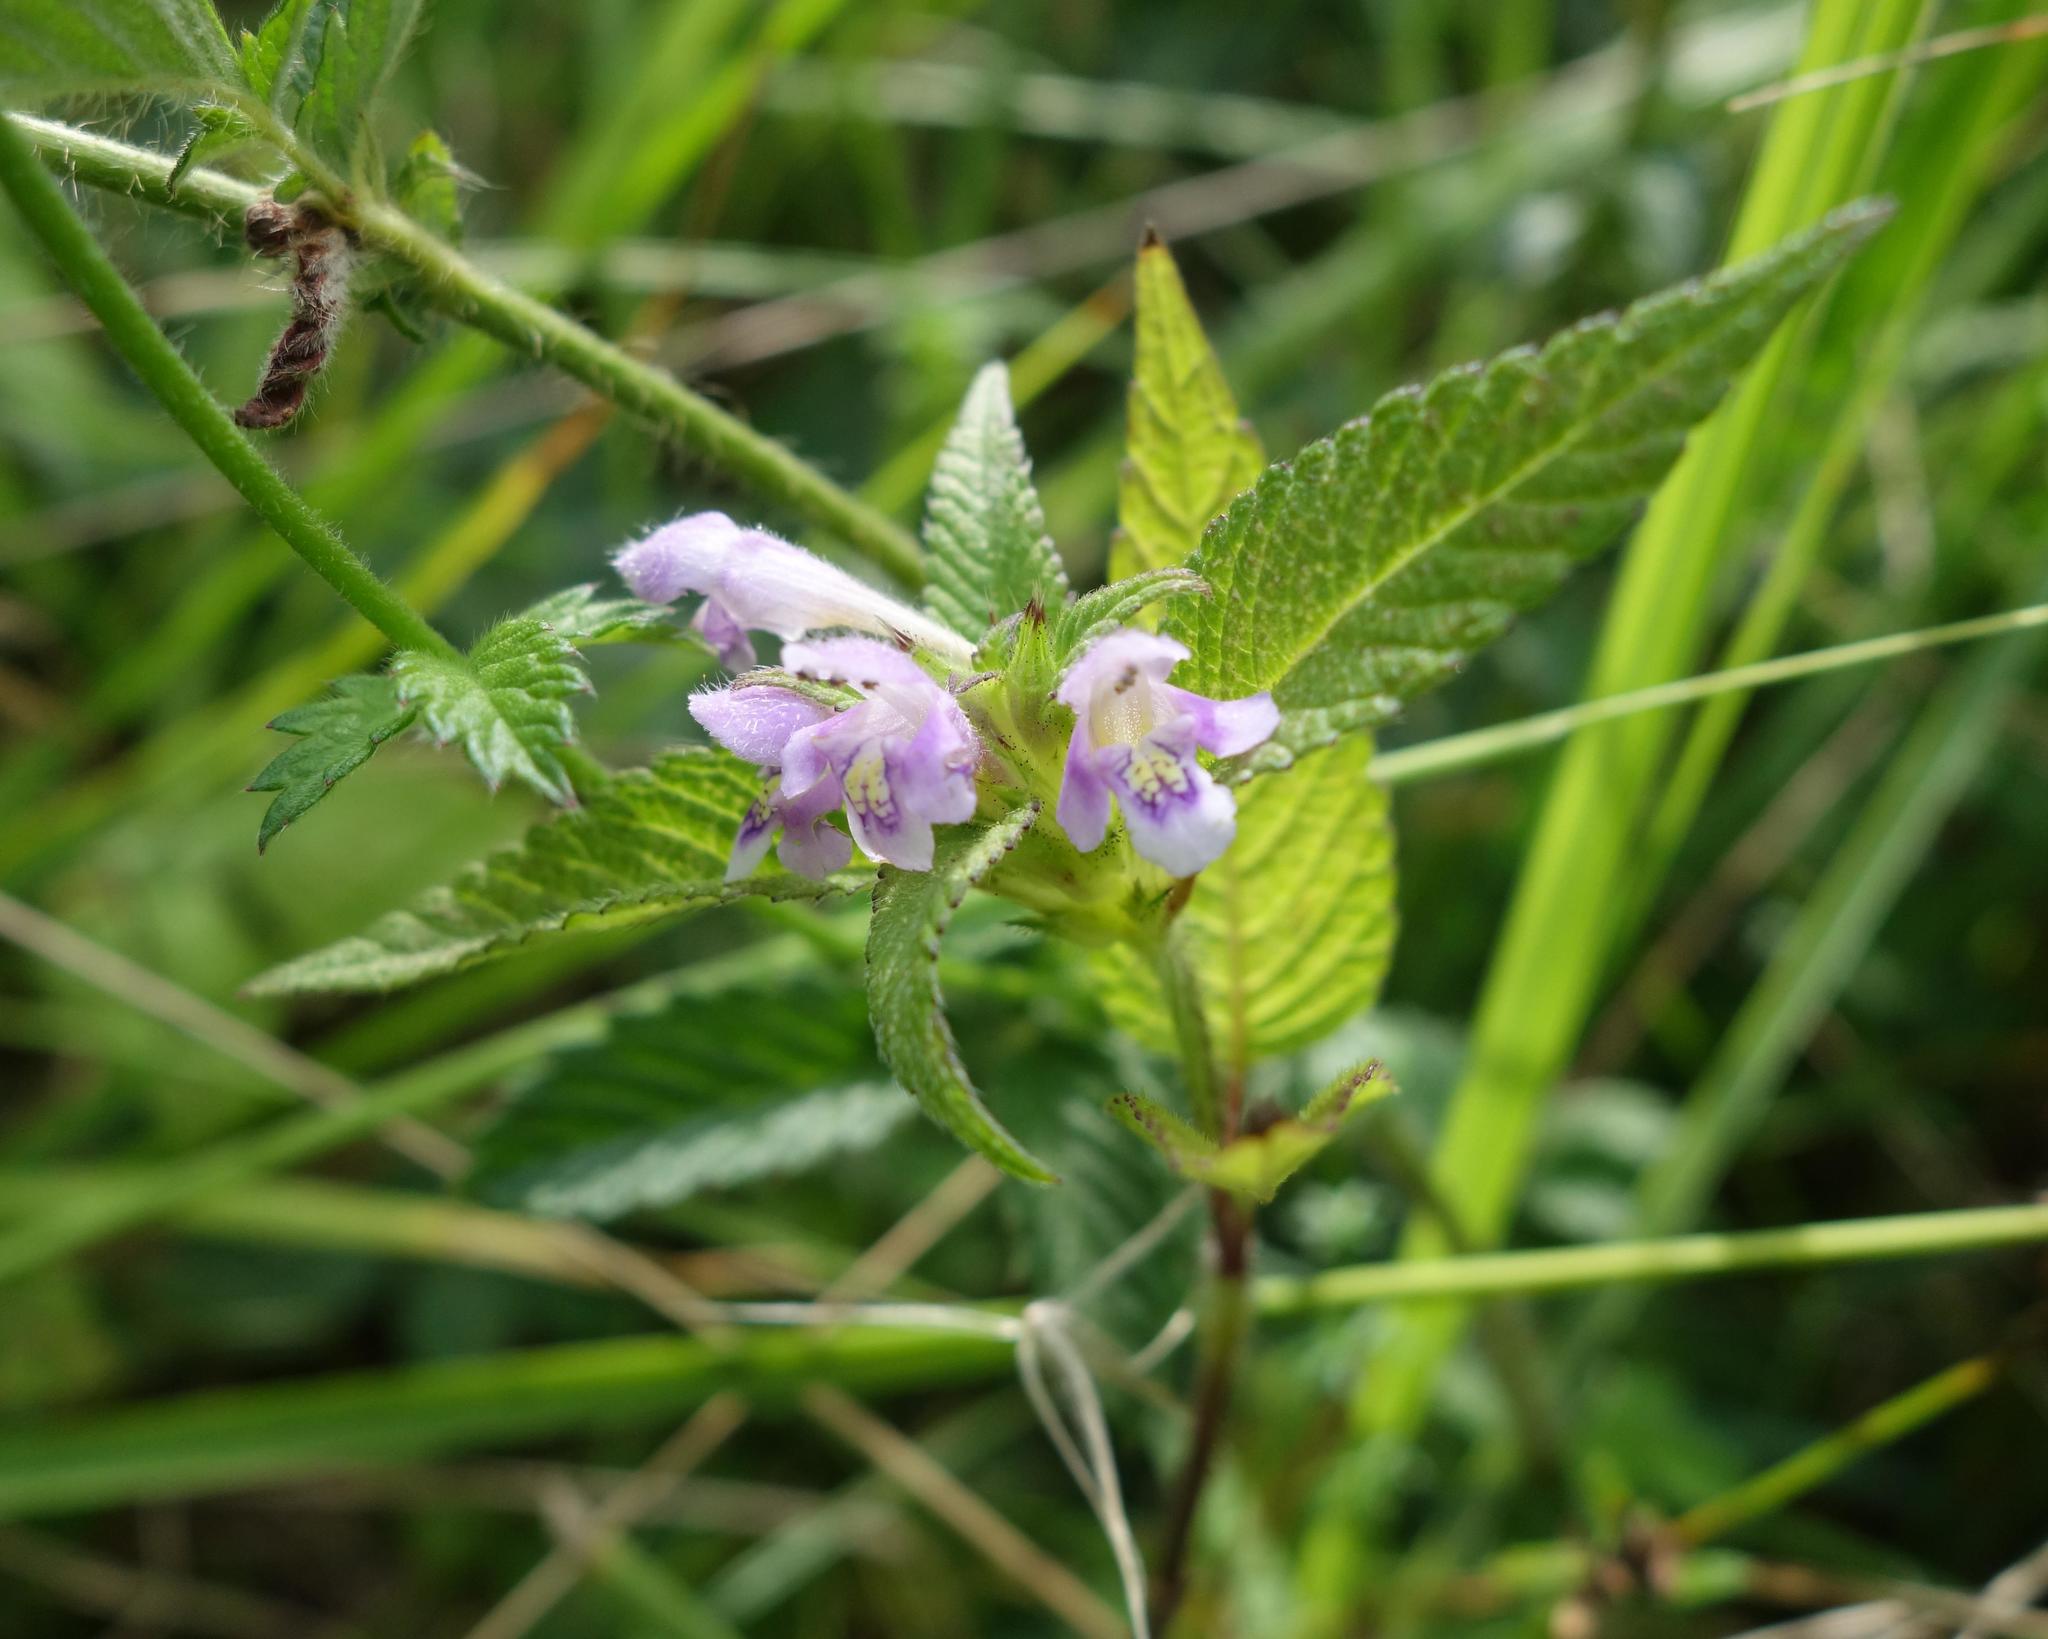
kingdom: Plantae
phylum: Tracheophyta
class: Magnoliopsida
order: Lamiales
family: Lamiaceae
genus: Galeopsis
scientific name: Galeopsis tetrahit
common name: Common hemp-nettle
